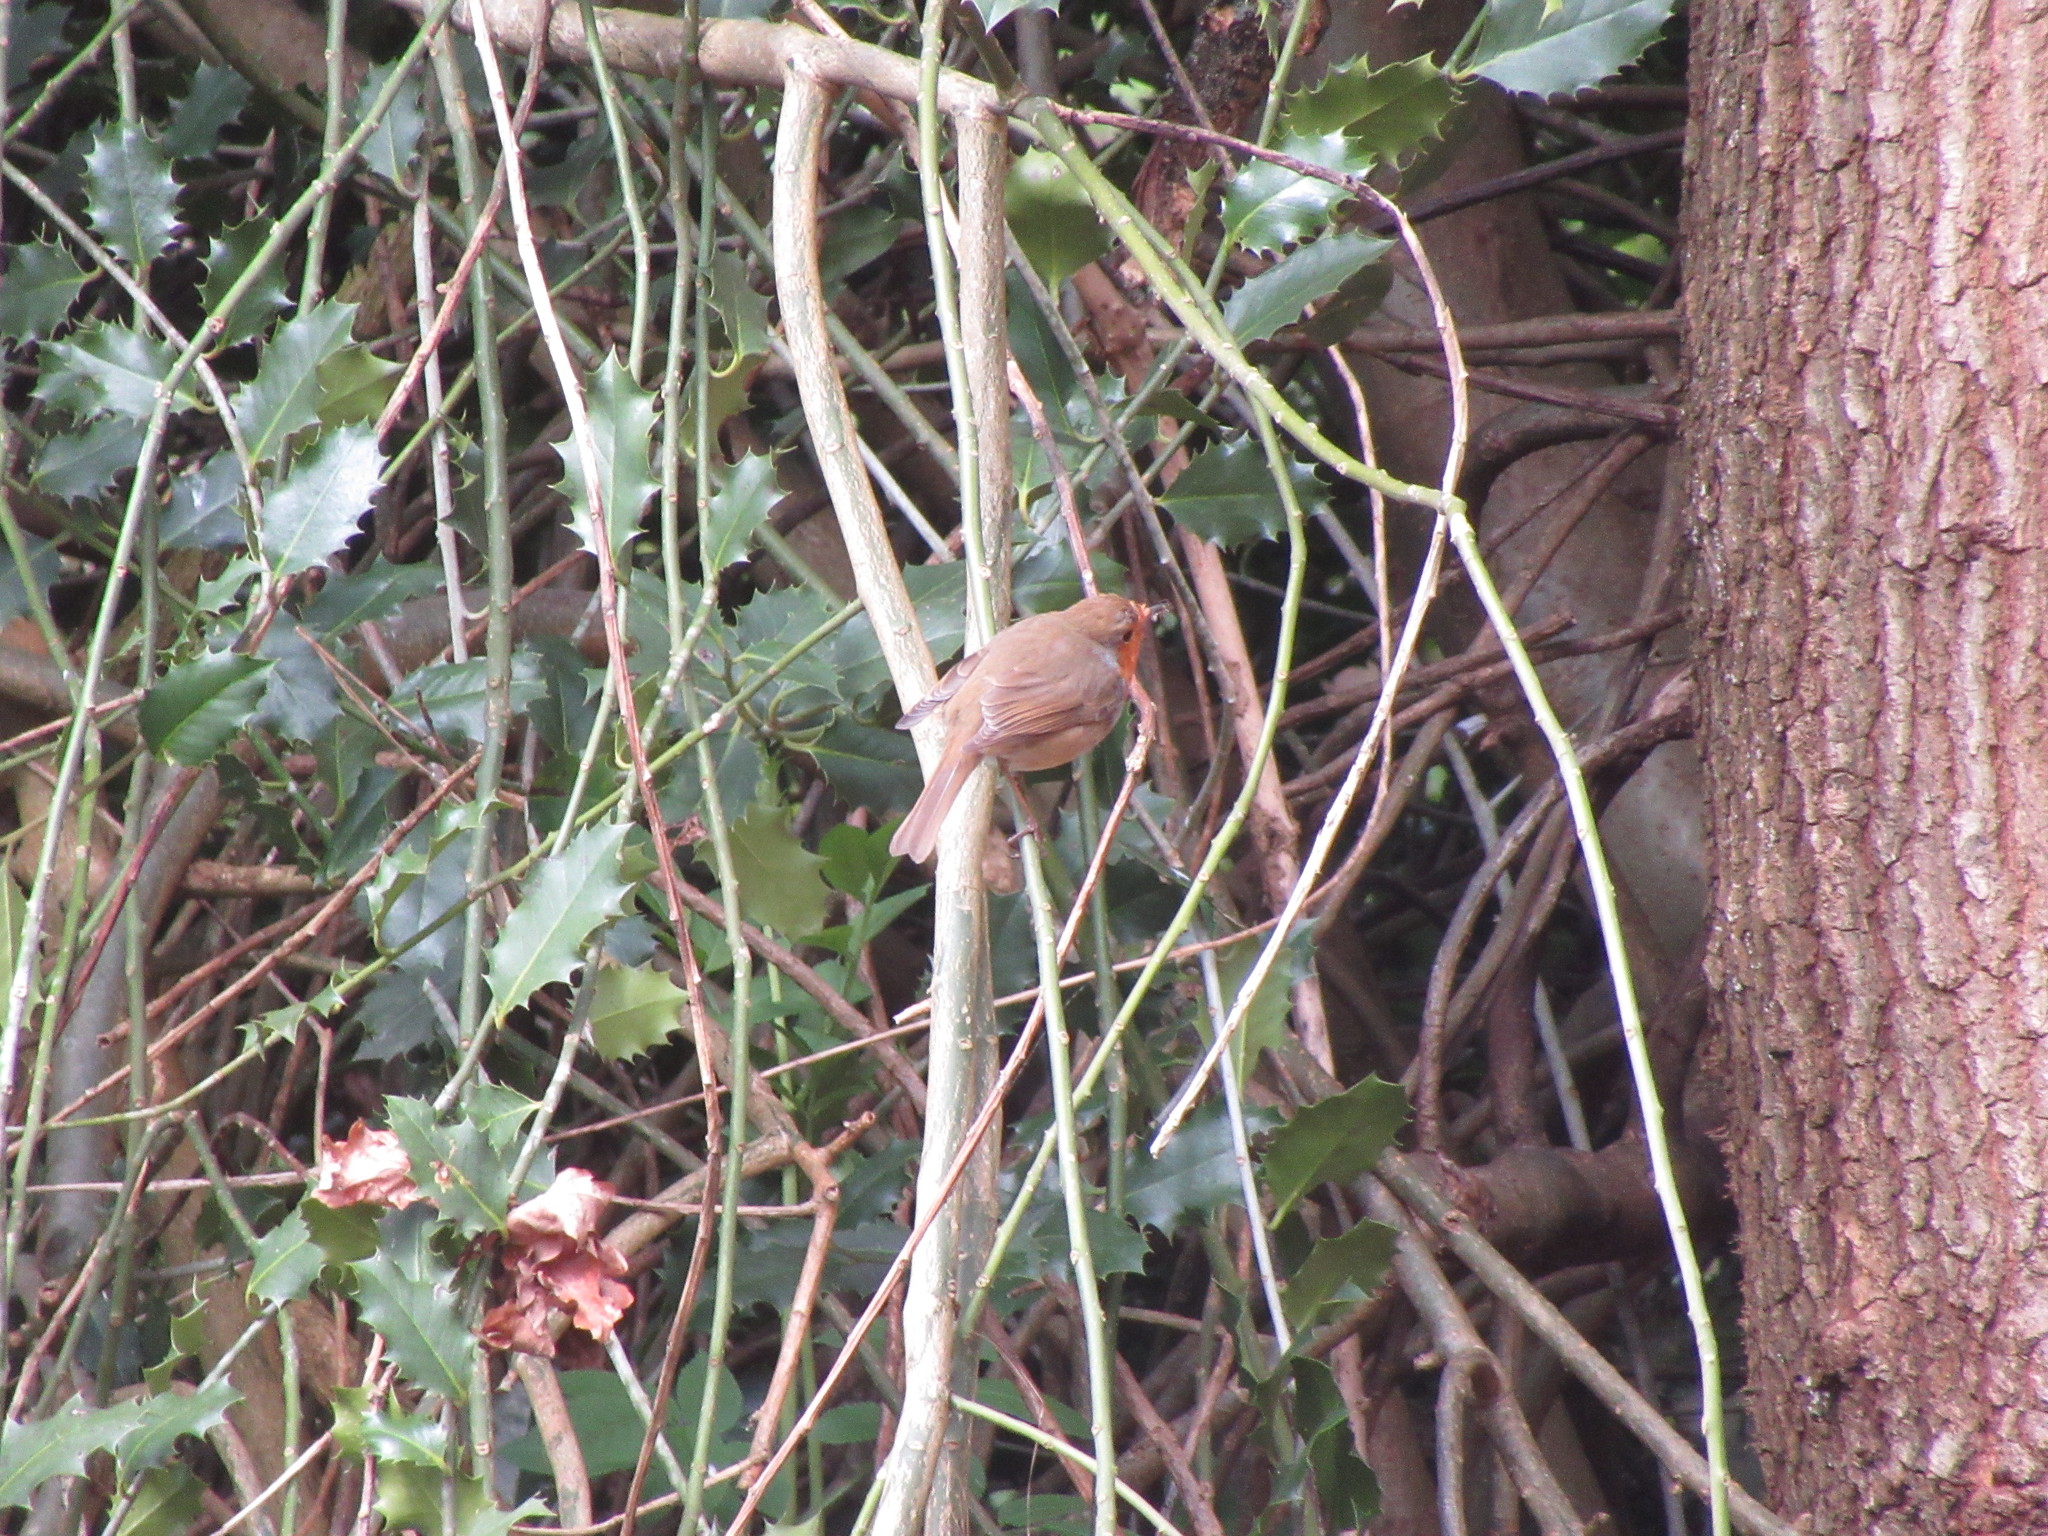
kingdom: Animalia
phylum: Chordata
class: Aves
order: Passeriformes
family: Muscicapidae
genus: Erithacus
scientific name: Erithacus rubecula
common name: European robin
